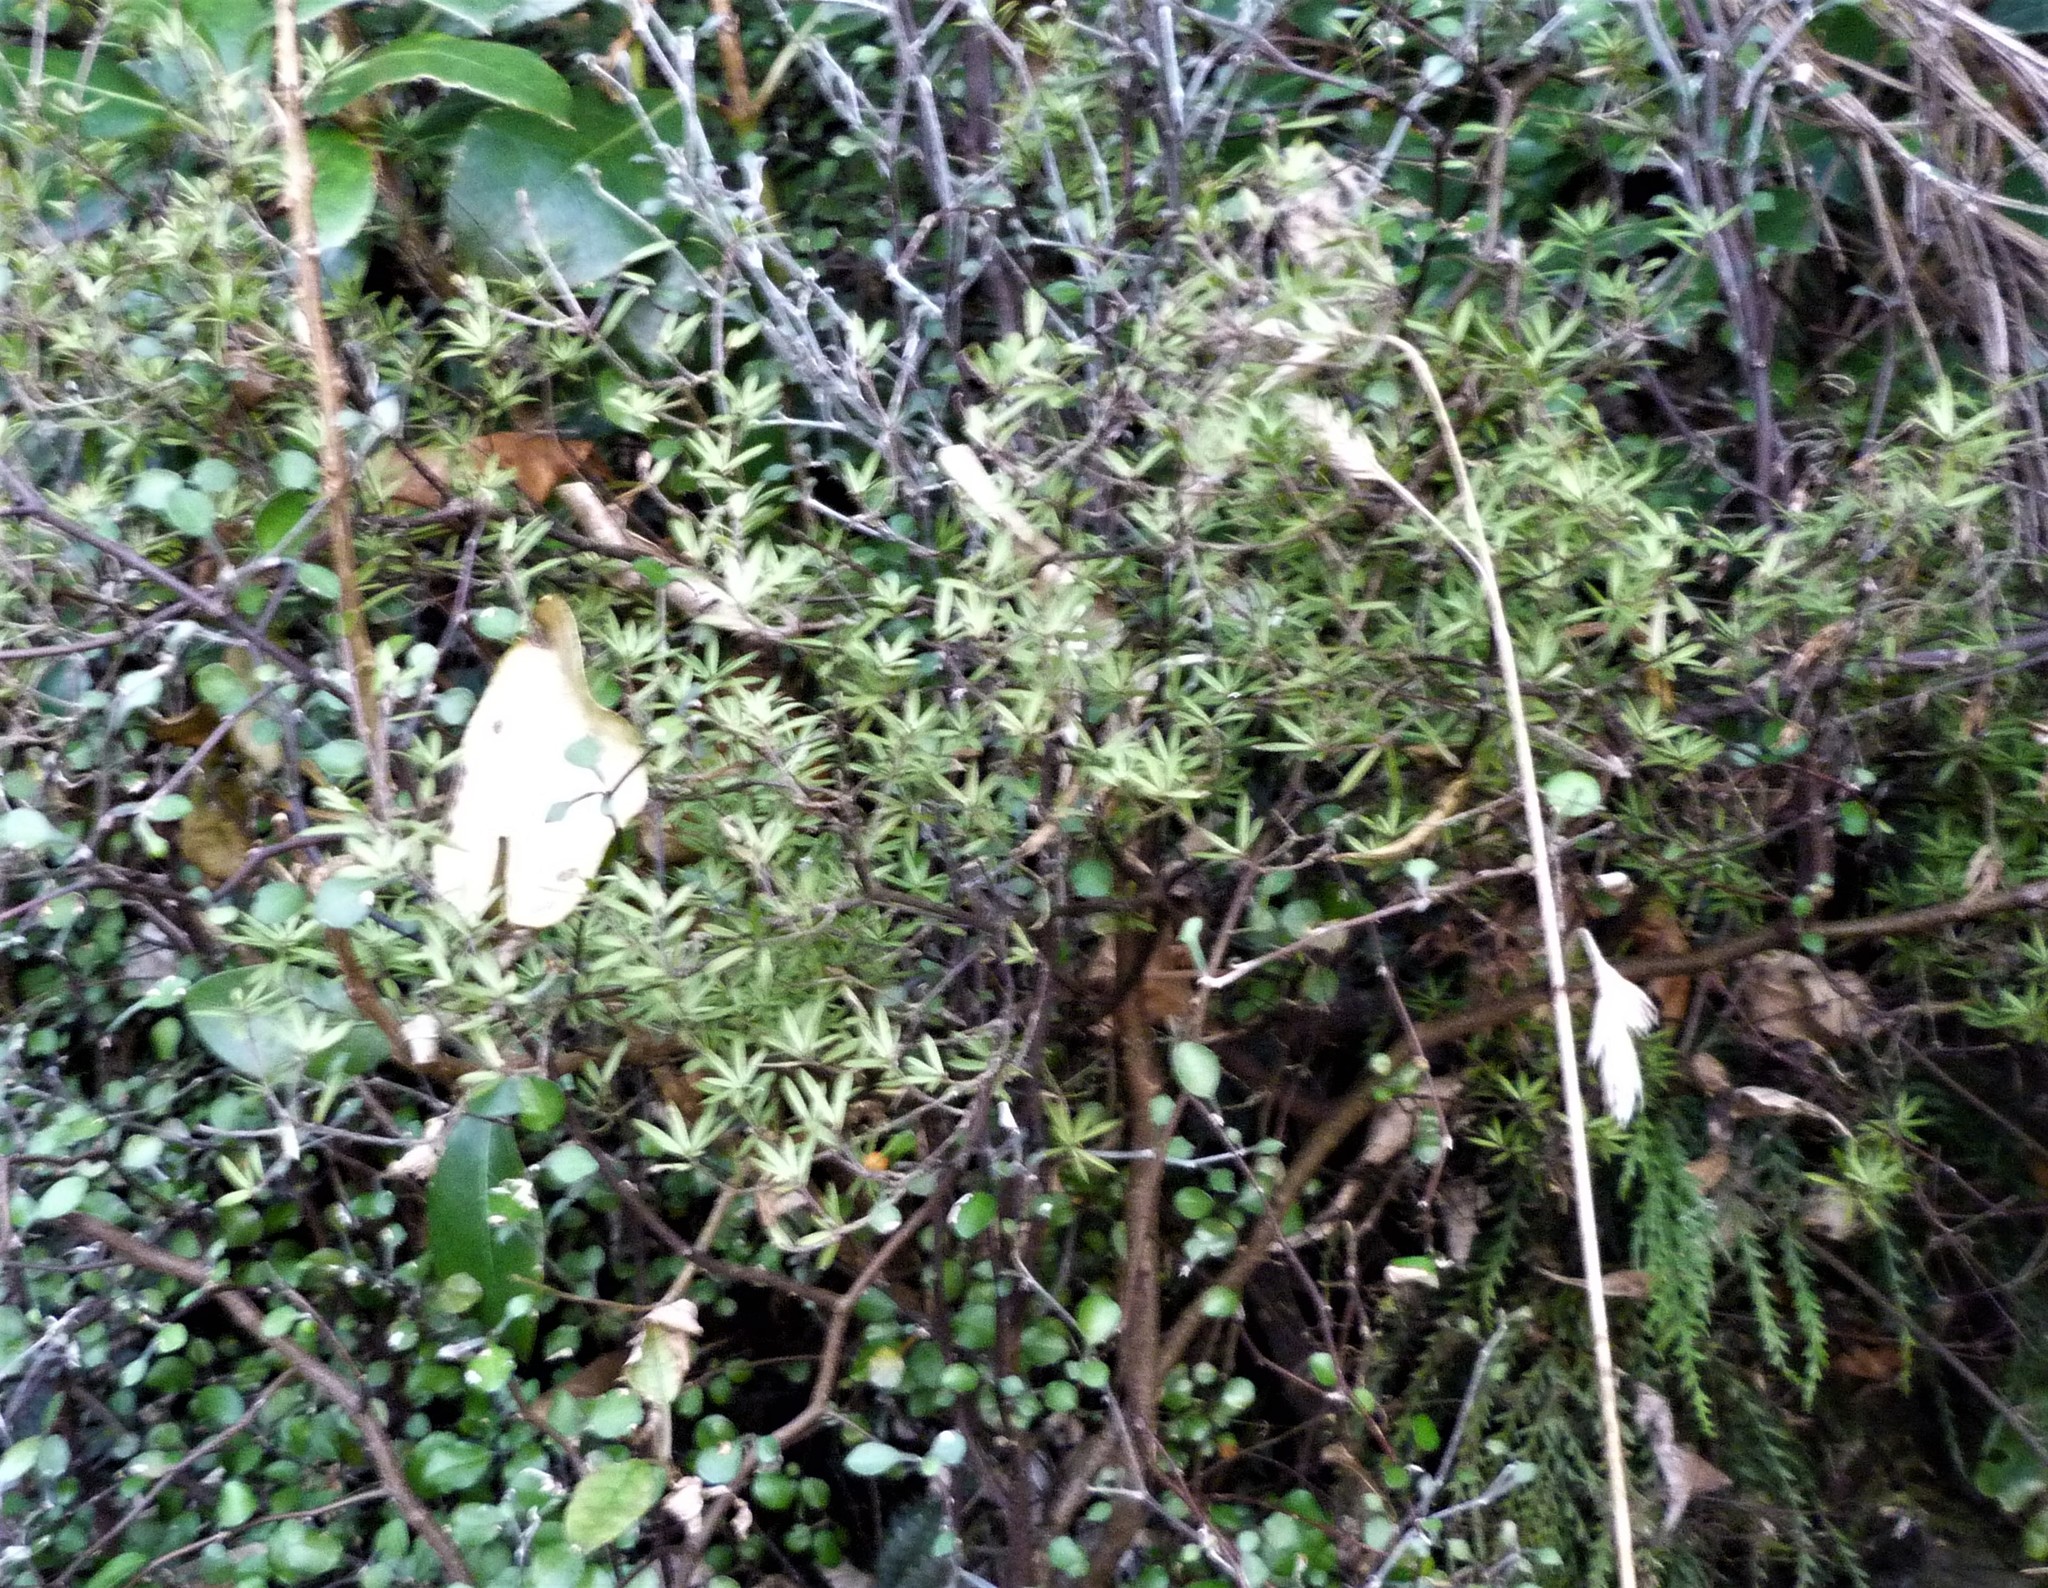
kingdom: Plantae
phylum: Tracheophyta
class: Magnoliopsida
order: Ericales
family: Ericaceae
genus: Leucopogon
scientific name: Leucopogon fasciculatus
